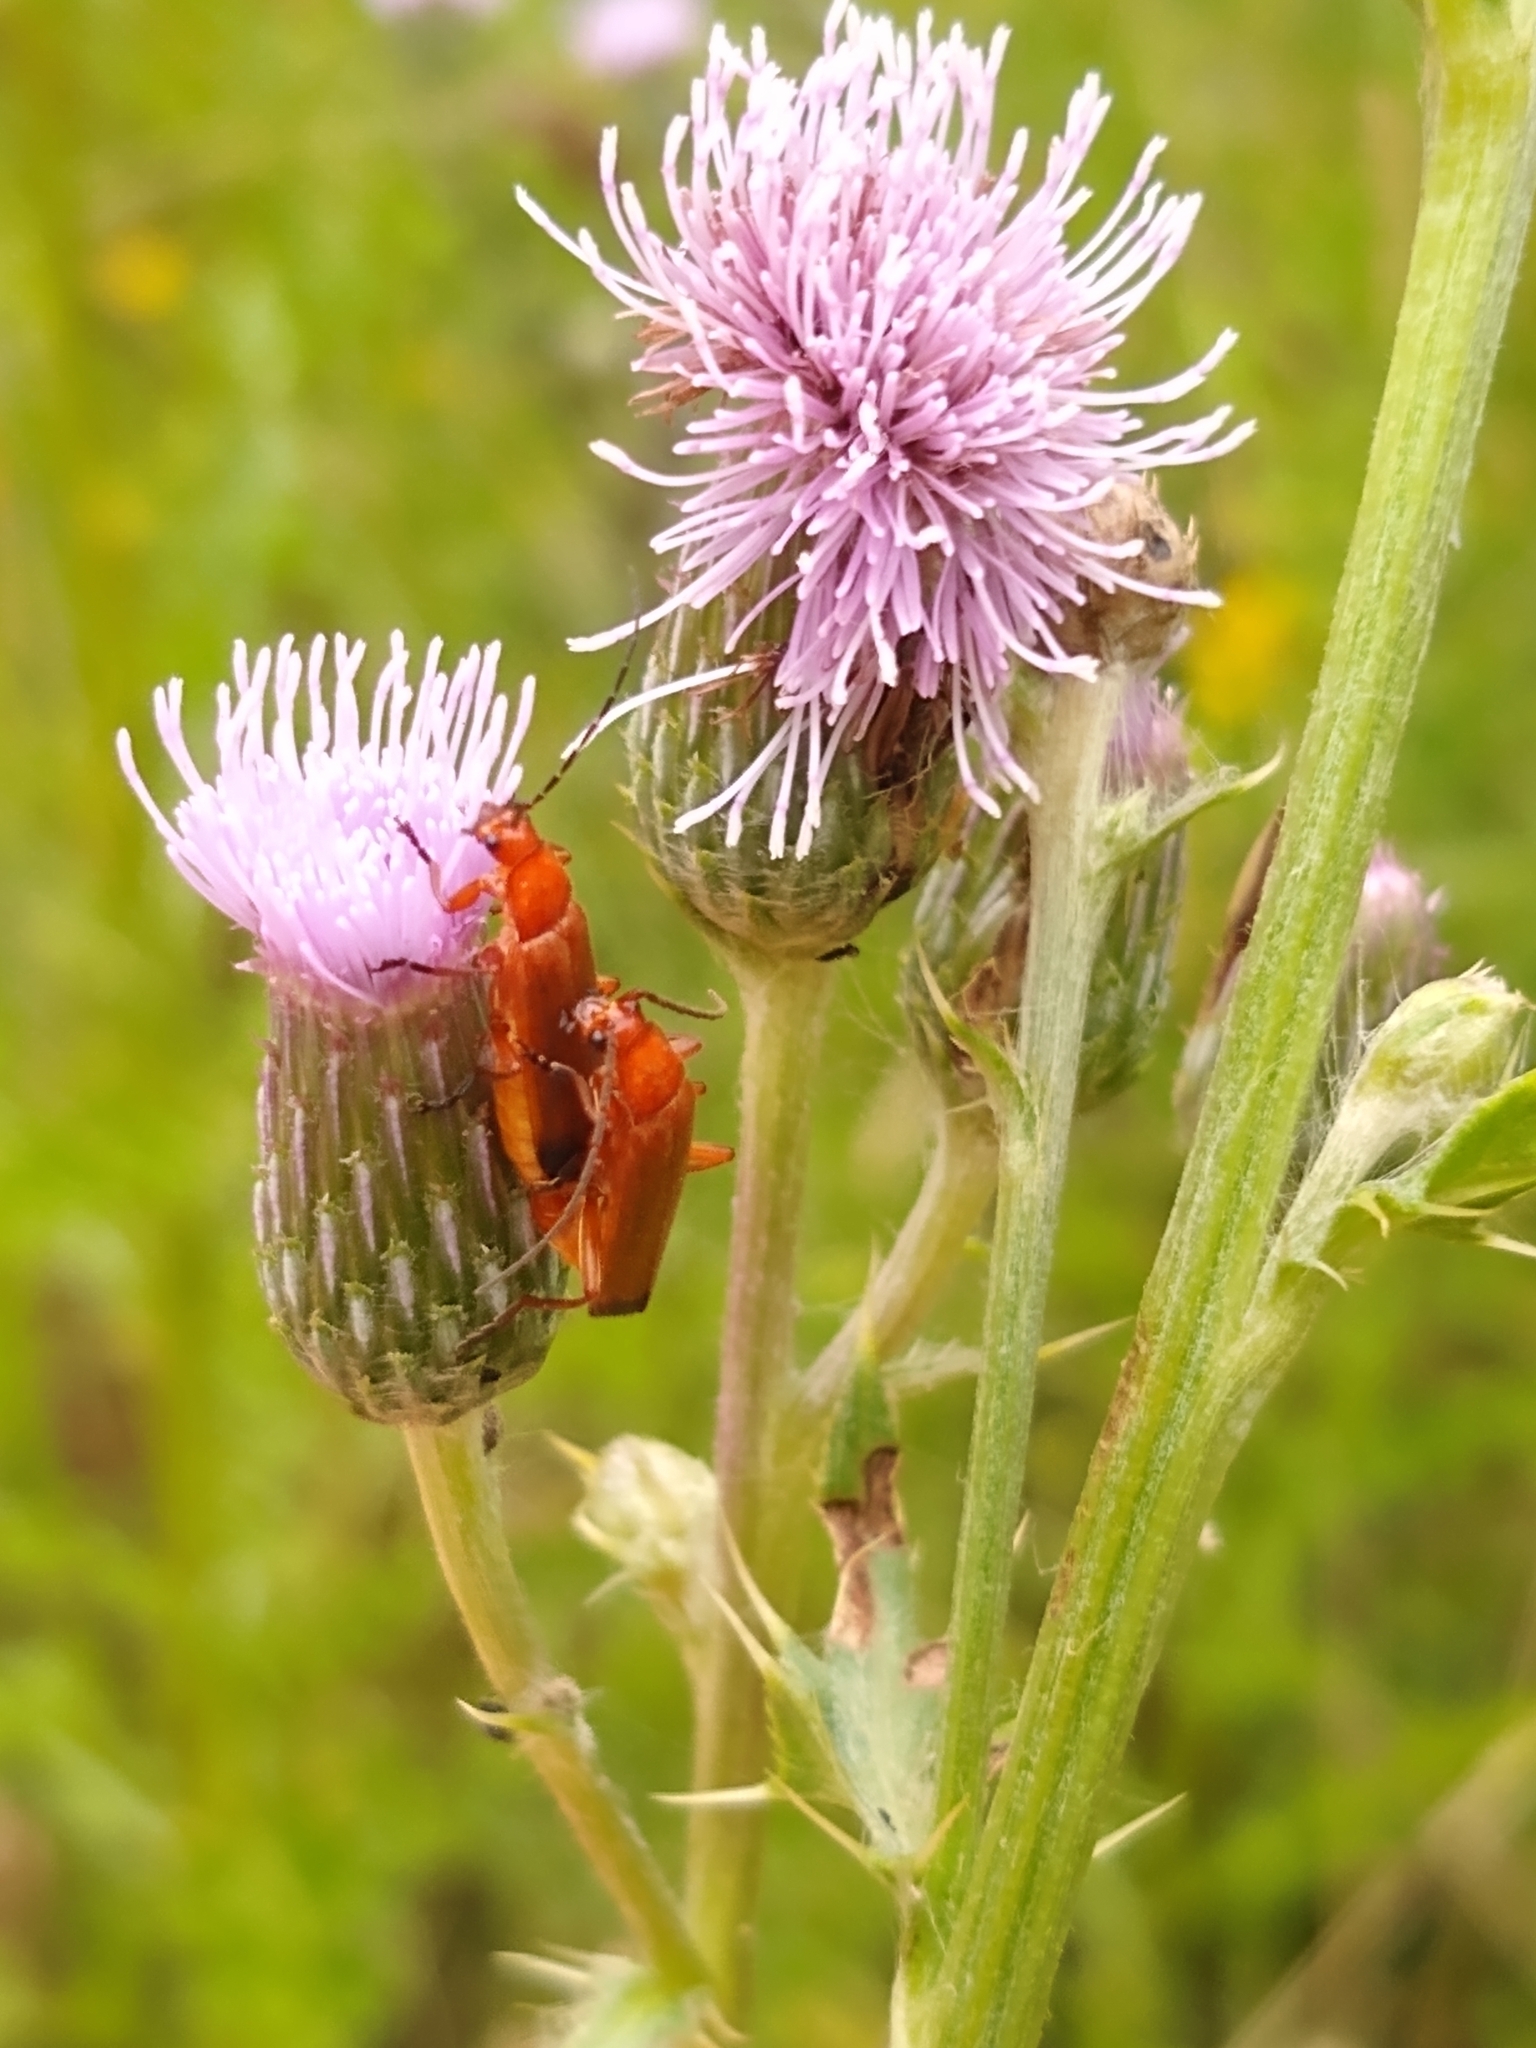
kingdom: Animalia
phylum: Arthropoda
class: Insecta
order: Coleoptera
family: Cantharidae
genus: Rhagonycha
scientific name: Rhagonycha fulva
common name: Common red soldier beetle
